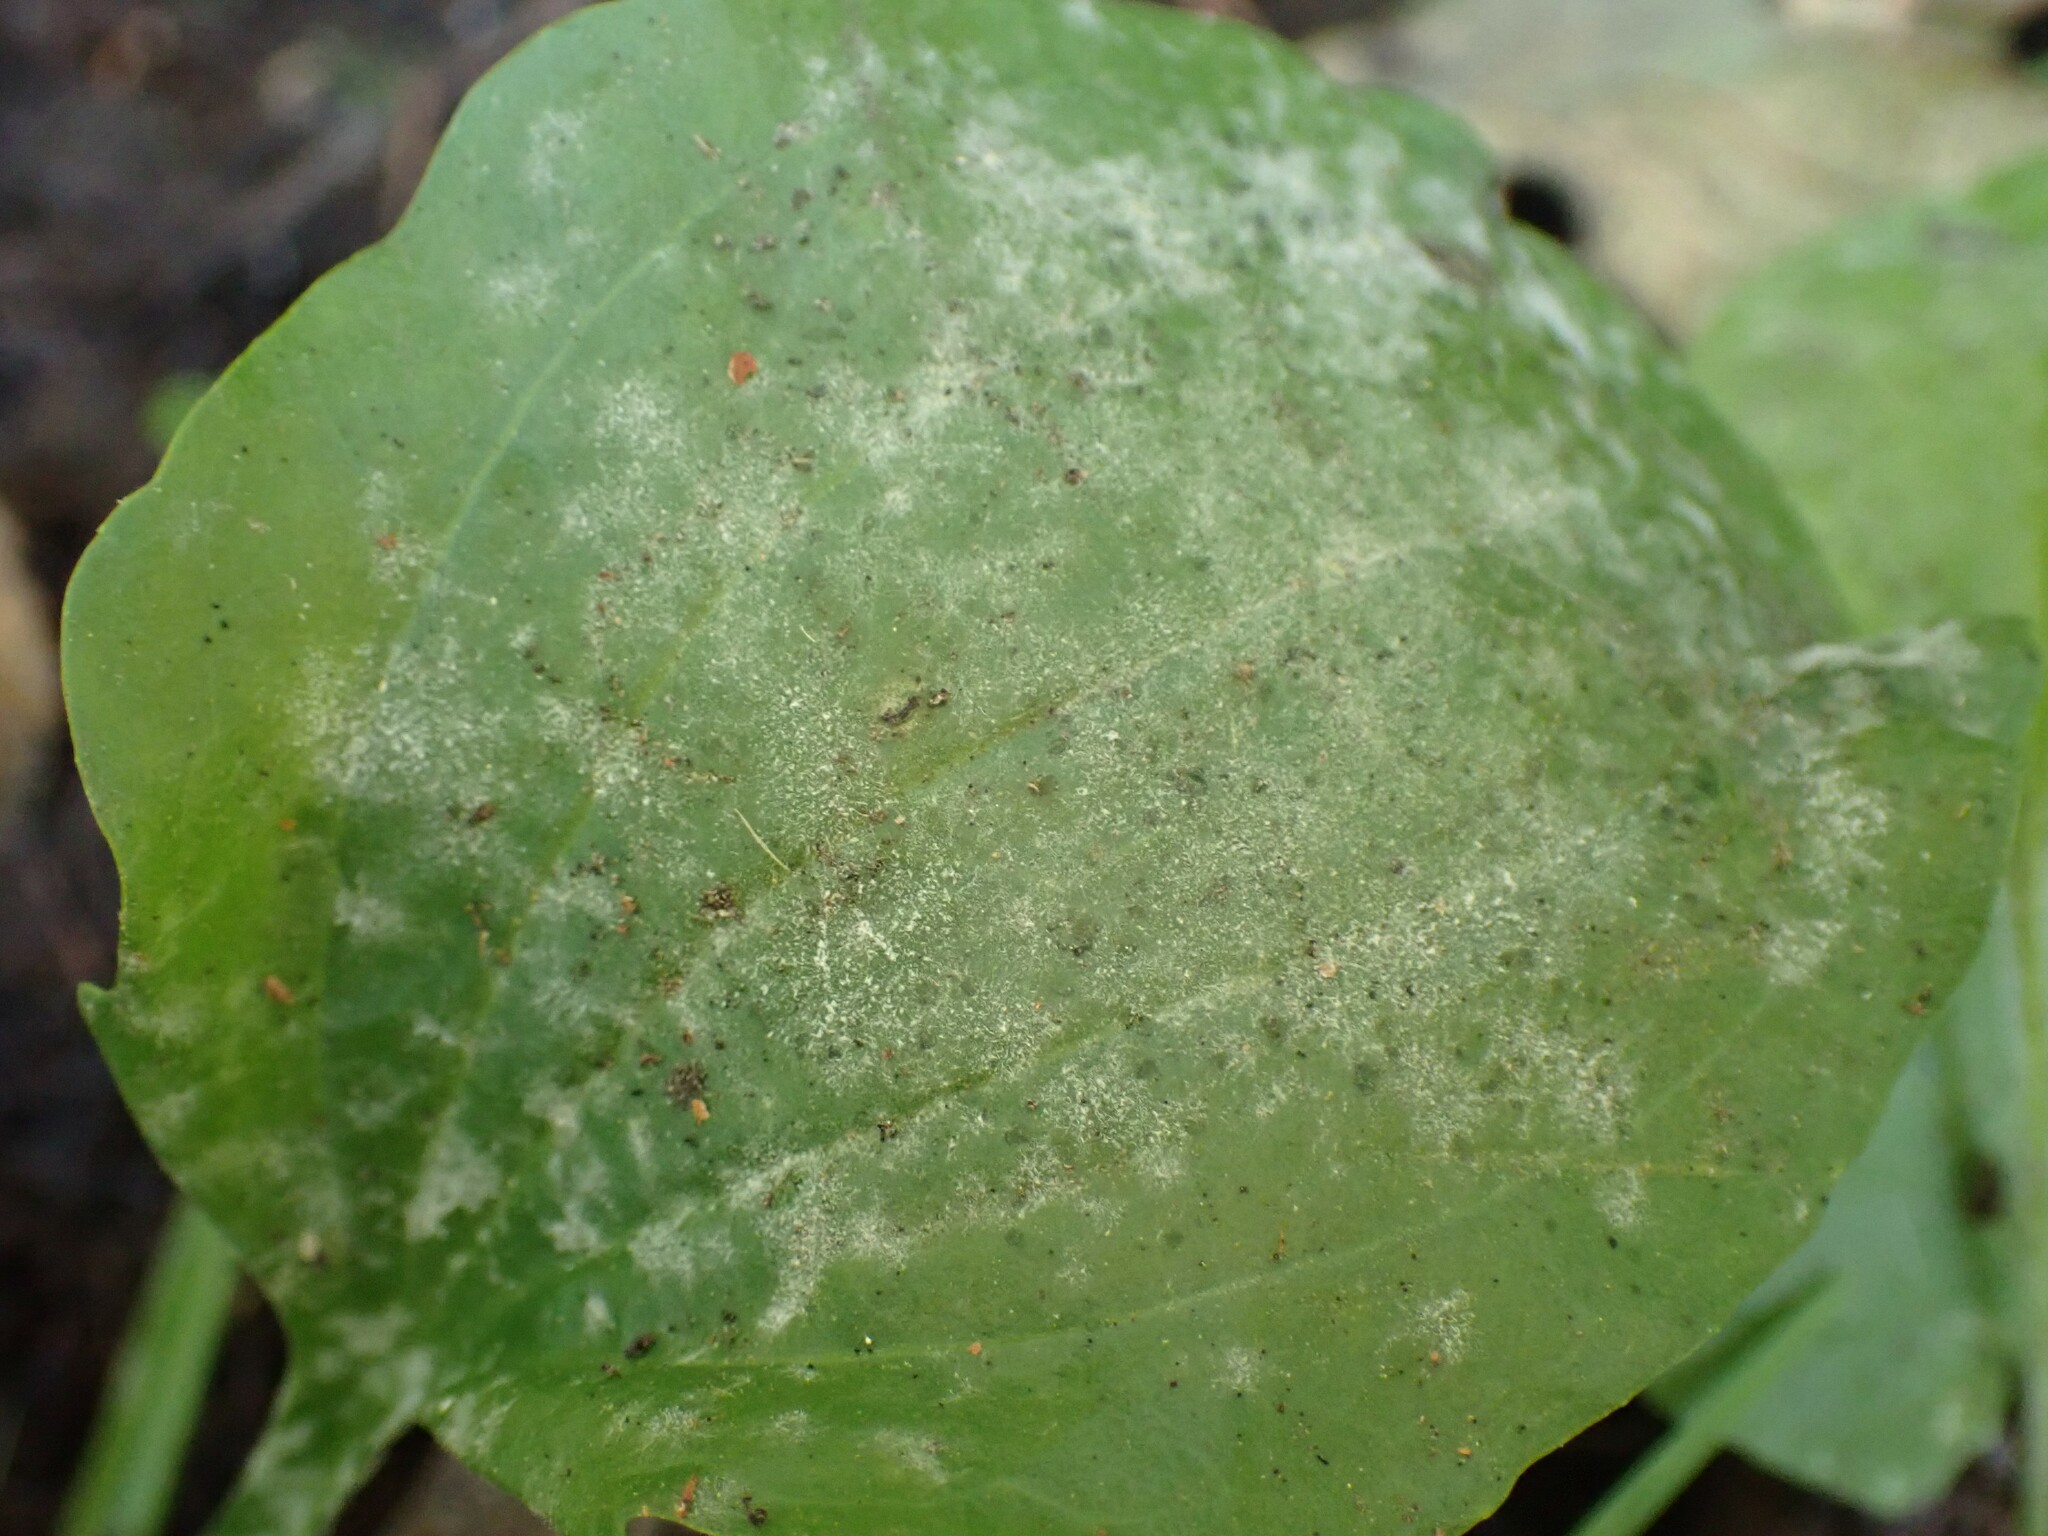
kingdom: Fungi
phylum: Ascomycota
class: Leotiomycetes
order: Helotiales
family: Erysiphaceae
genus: Golovinomyces
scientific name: Golovinomyces sordidus
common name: Plantain mildew
